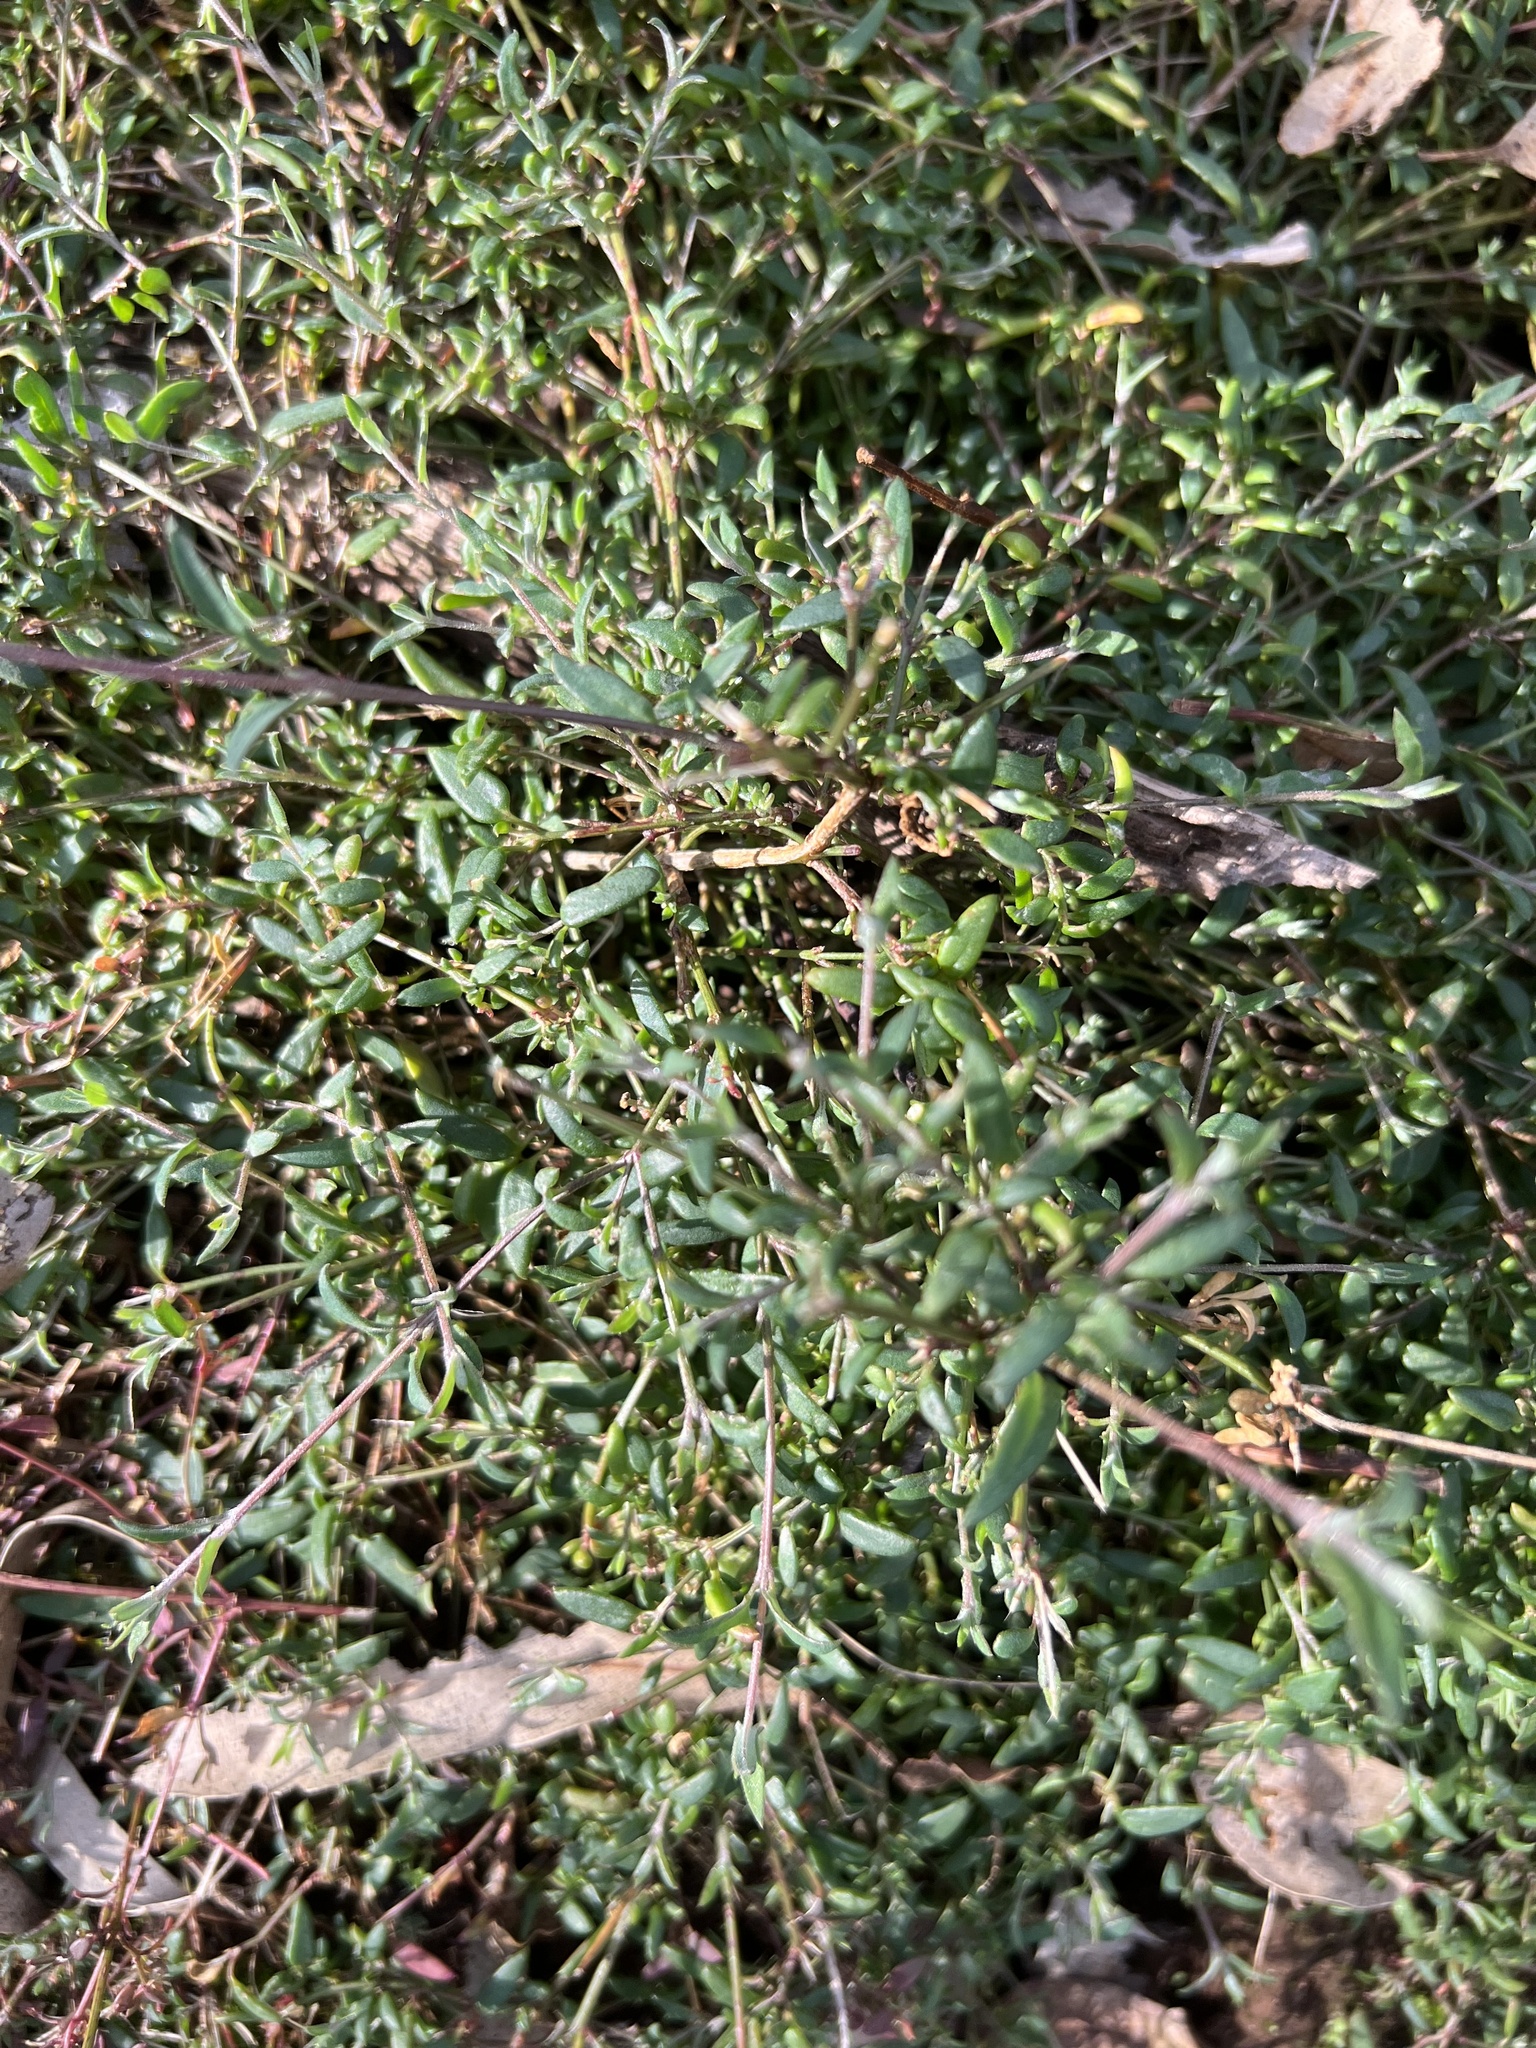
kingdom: Plantae
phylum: Tracheophyta
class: Magnoliopsida
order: Caryophyllales
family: Amaranthaceae
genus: Chenopodium
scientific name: Chenopodium nutans
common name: Climbing-saltbush
